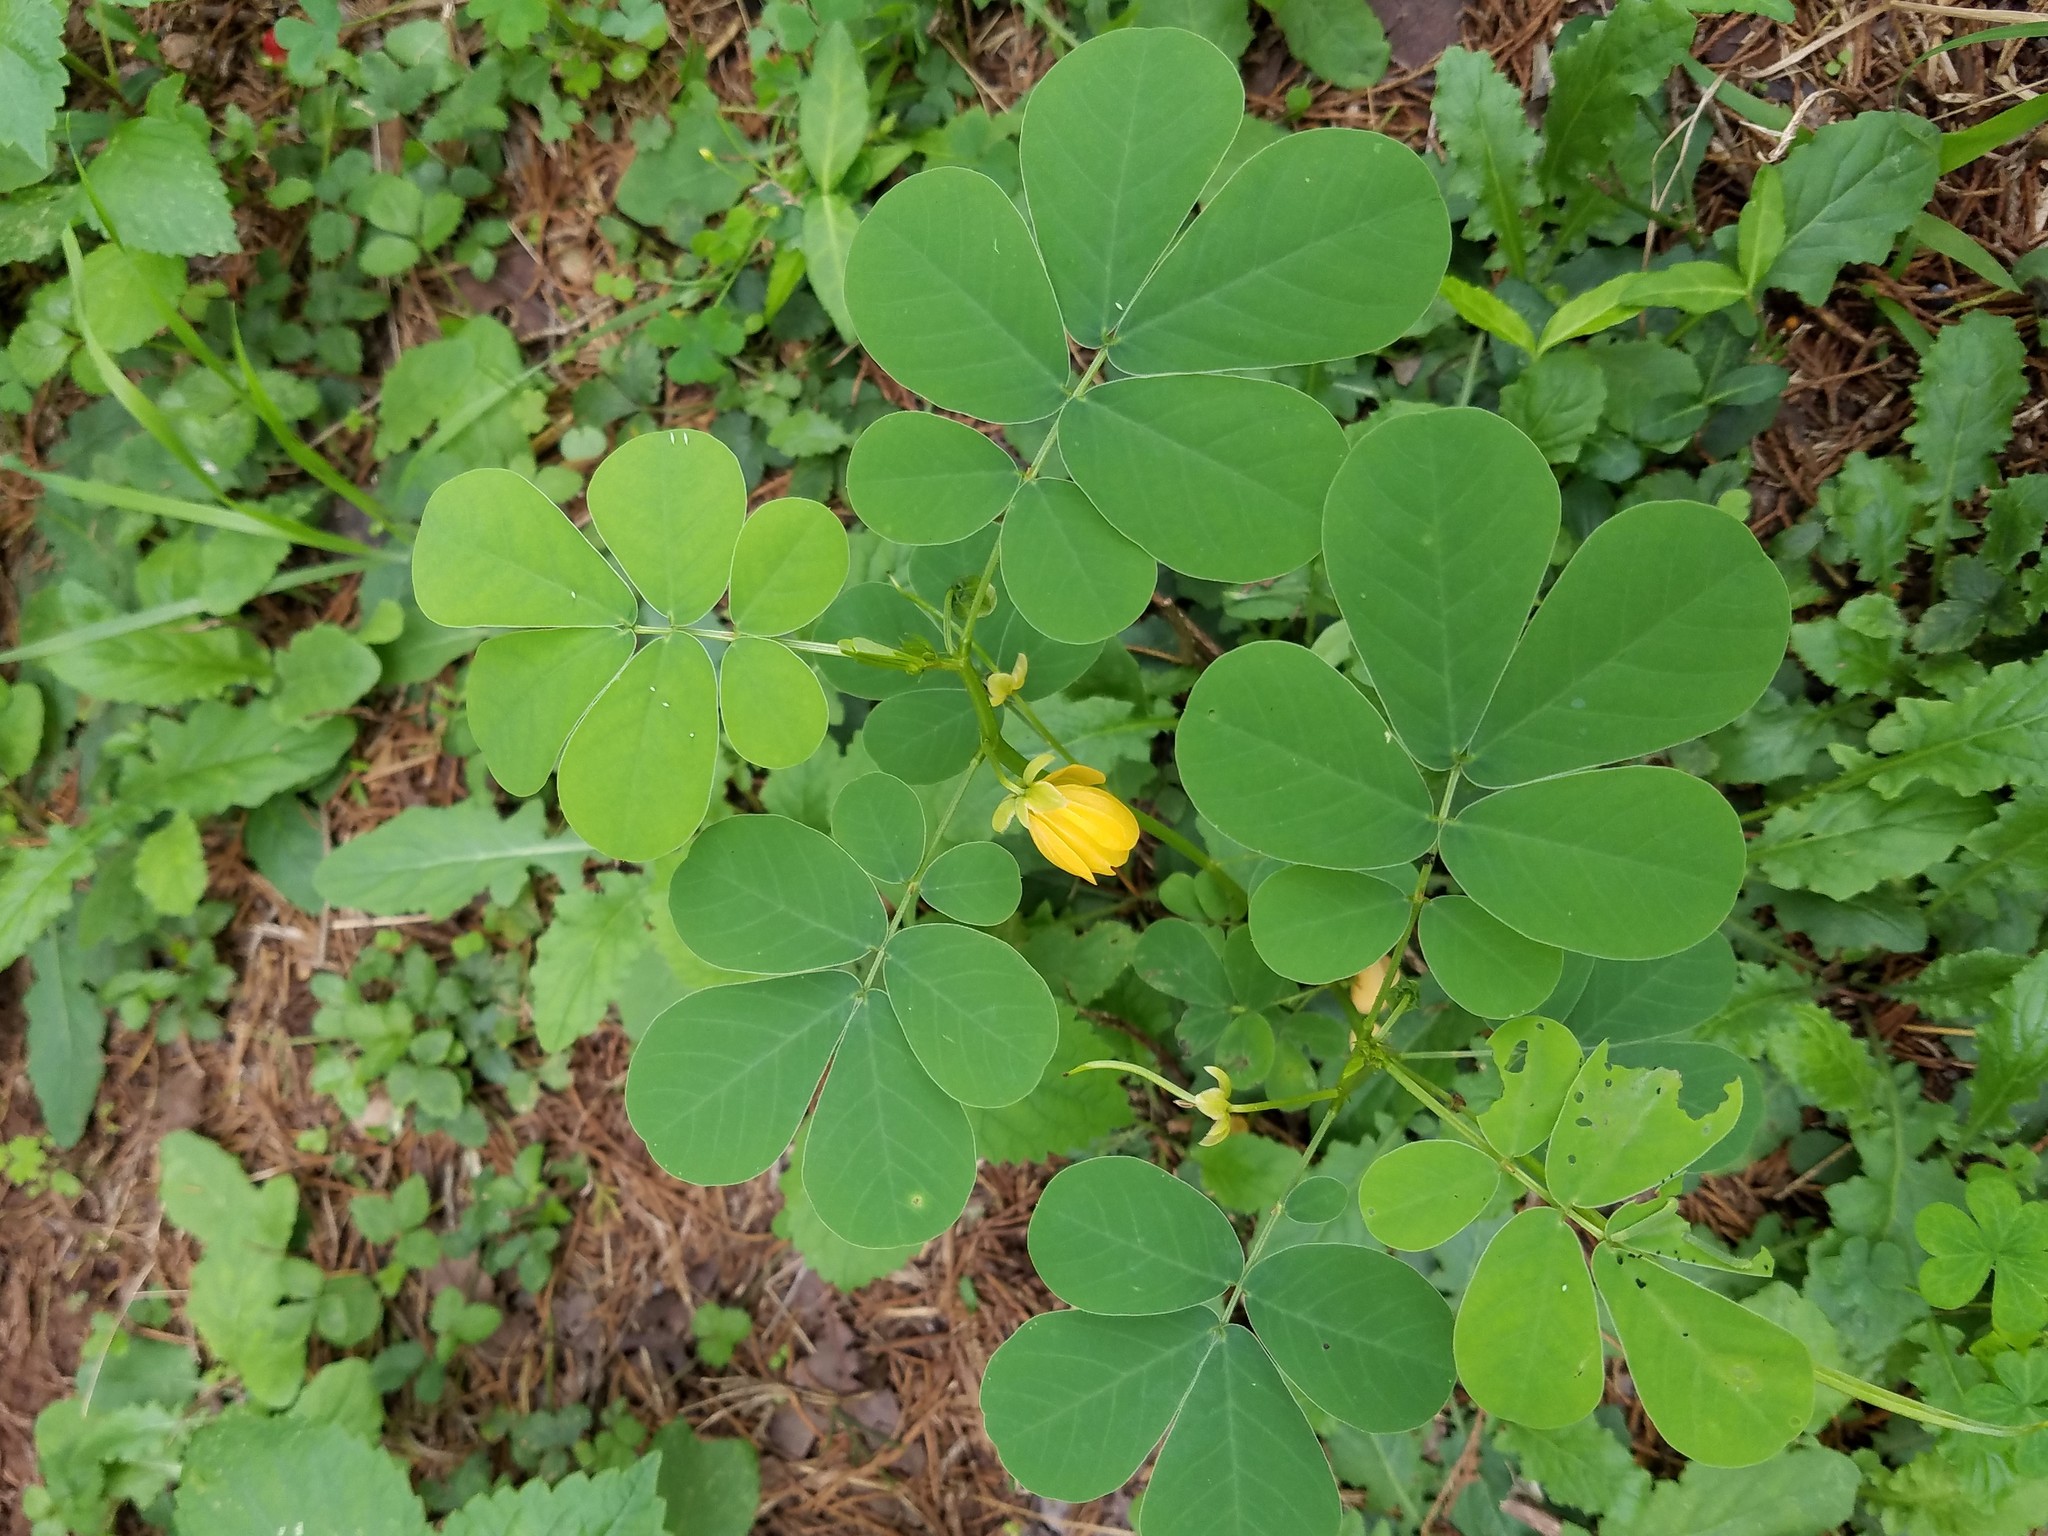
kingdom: Plantae
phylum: Tracheophyta
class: Magnoliopsida
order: Fabales
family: Fabaceae
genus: Senna
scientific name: Senna obtusifolia
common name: Java-bean
